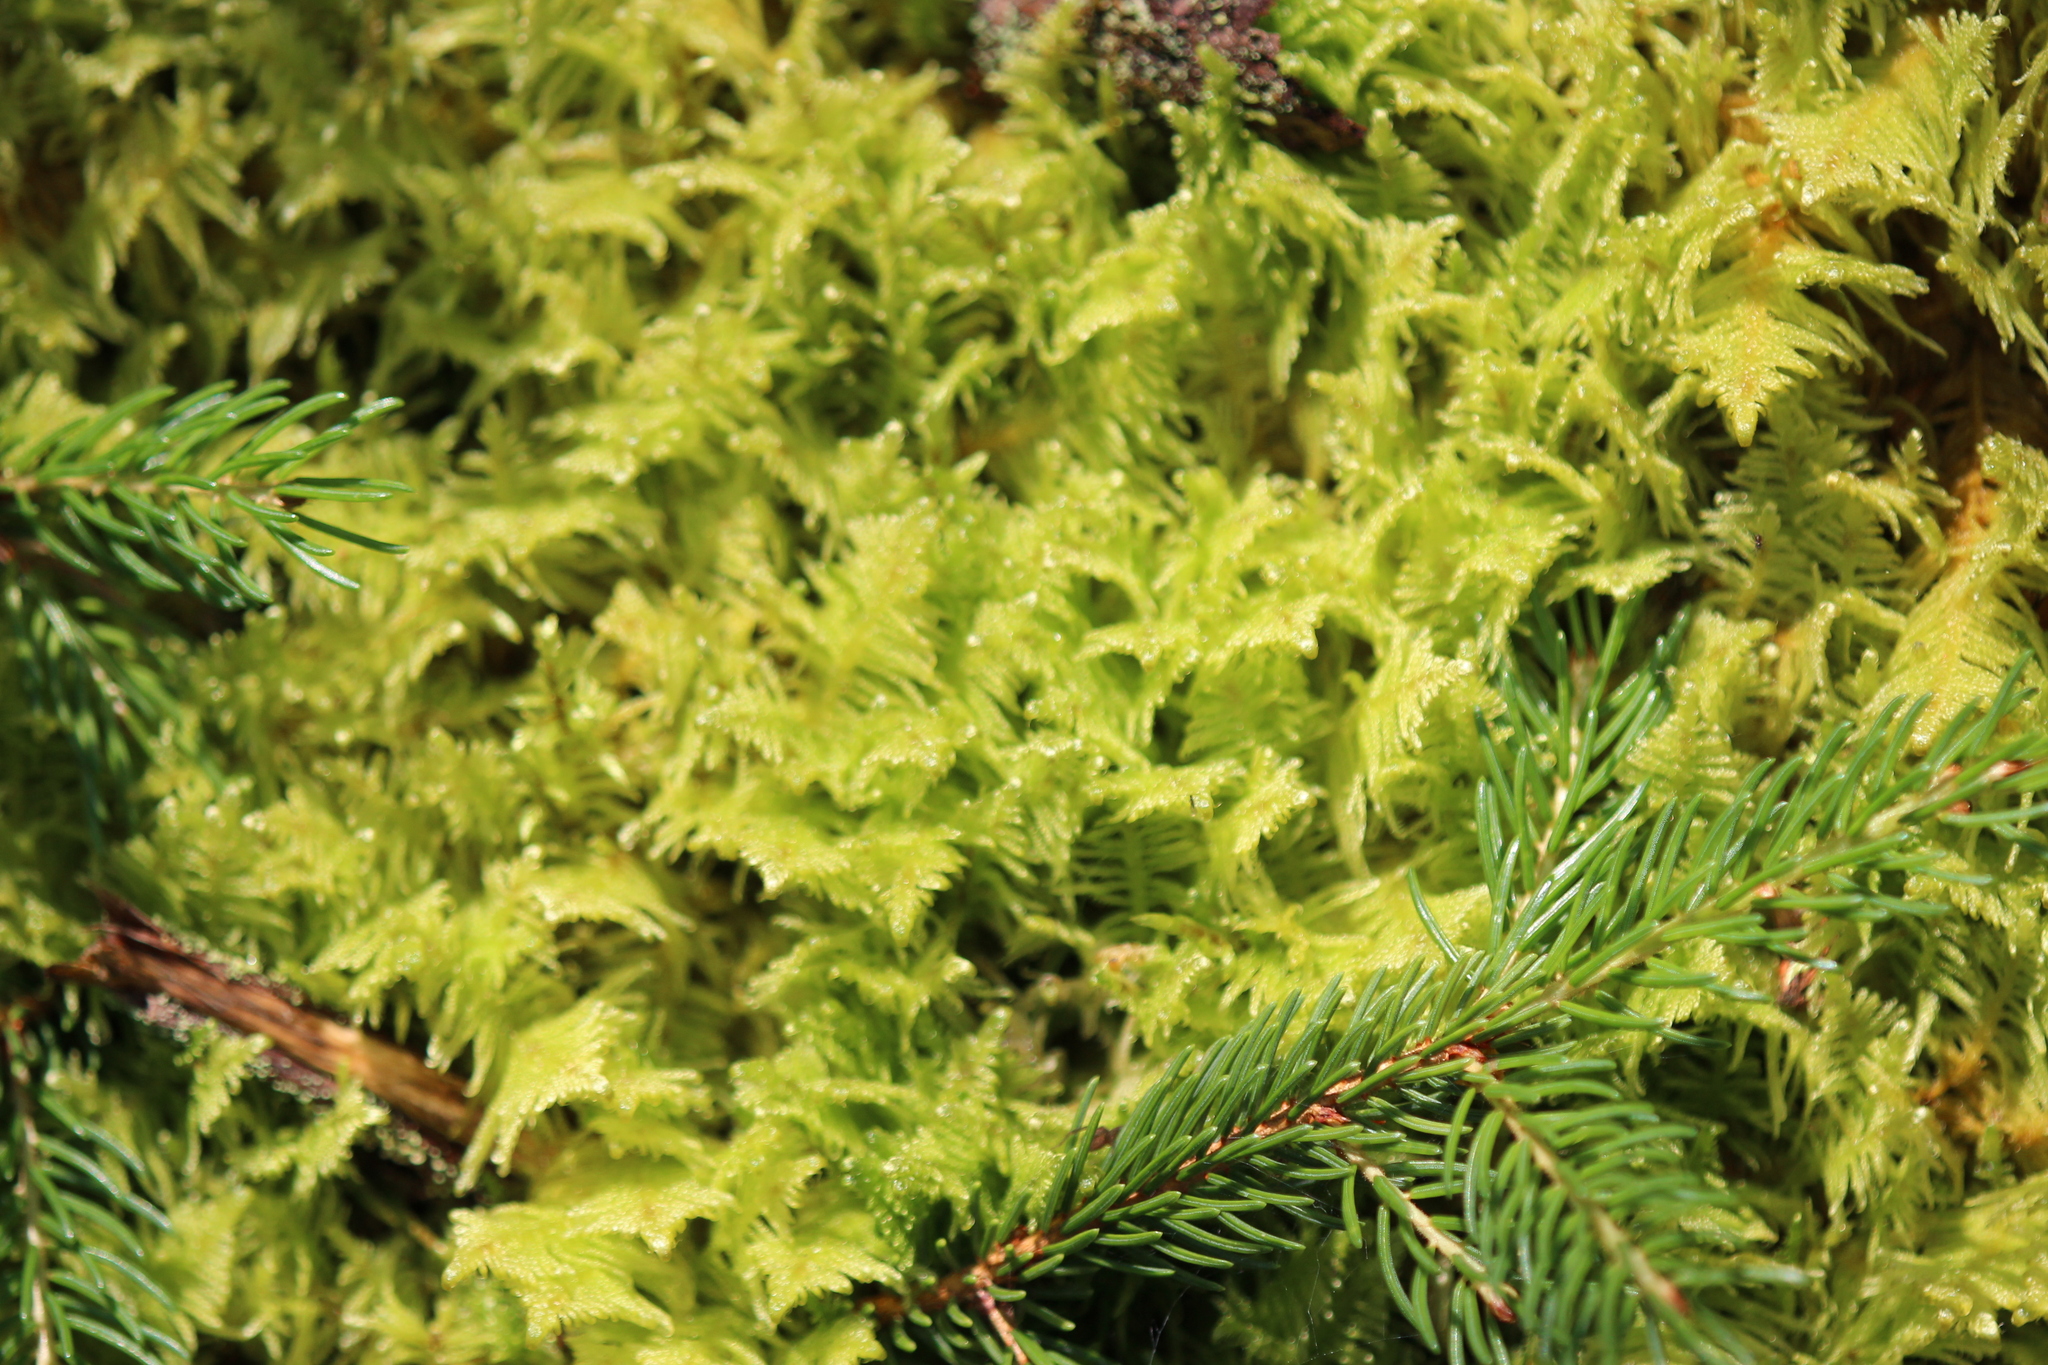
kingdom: Plantae
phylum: Bryophyta
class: Bryopsida
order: Hypnales
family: Pylaisiaceae
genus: Ptilium
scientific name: Ptilium crista-castrensis
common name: Knight's plume moss
